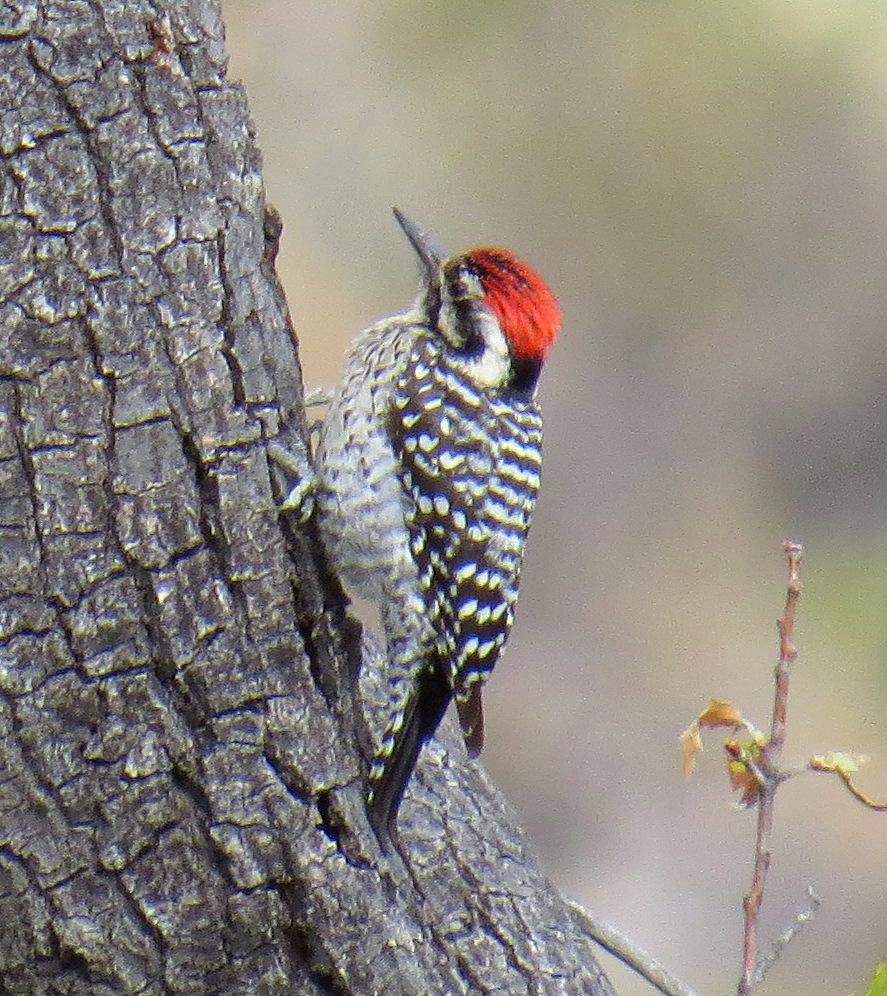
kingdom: Animalia
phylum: Chordata
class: Aves
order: Piciformes
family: Picidae
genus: Dryobates
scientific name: Dryobates scalaris
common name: Ladder-backed woodpecker
